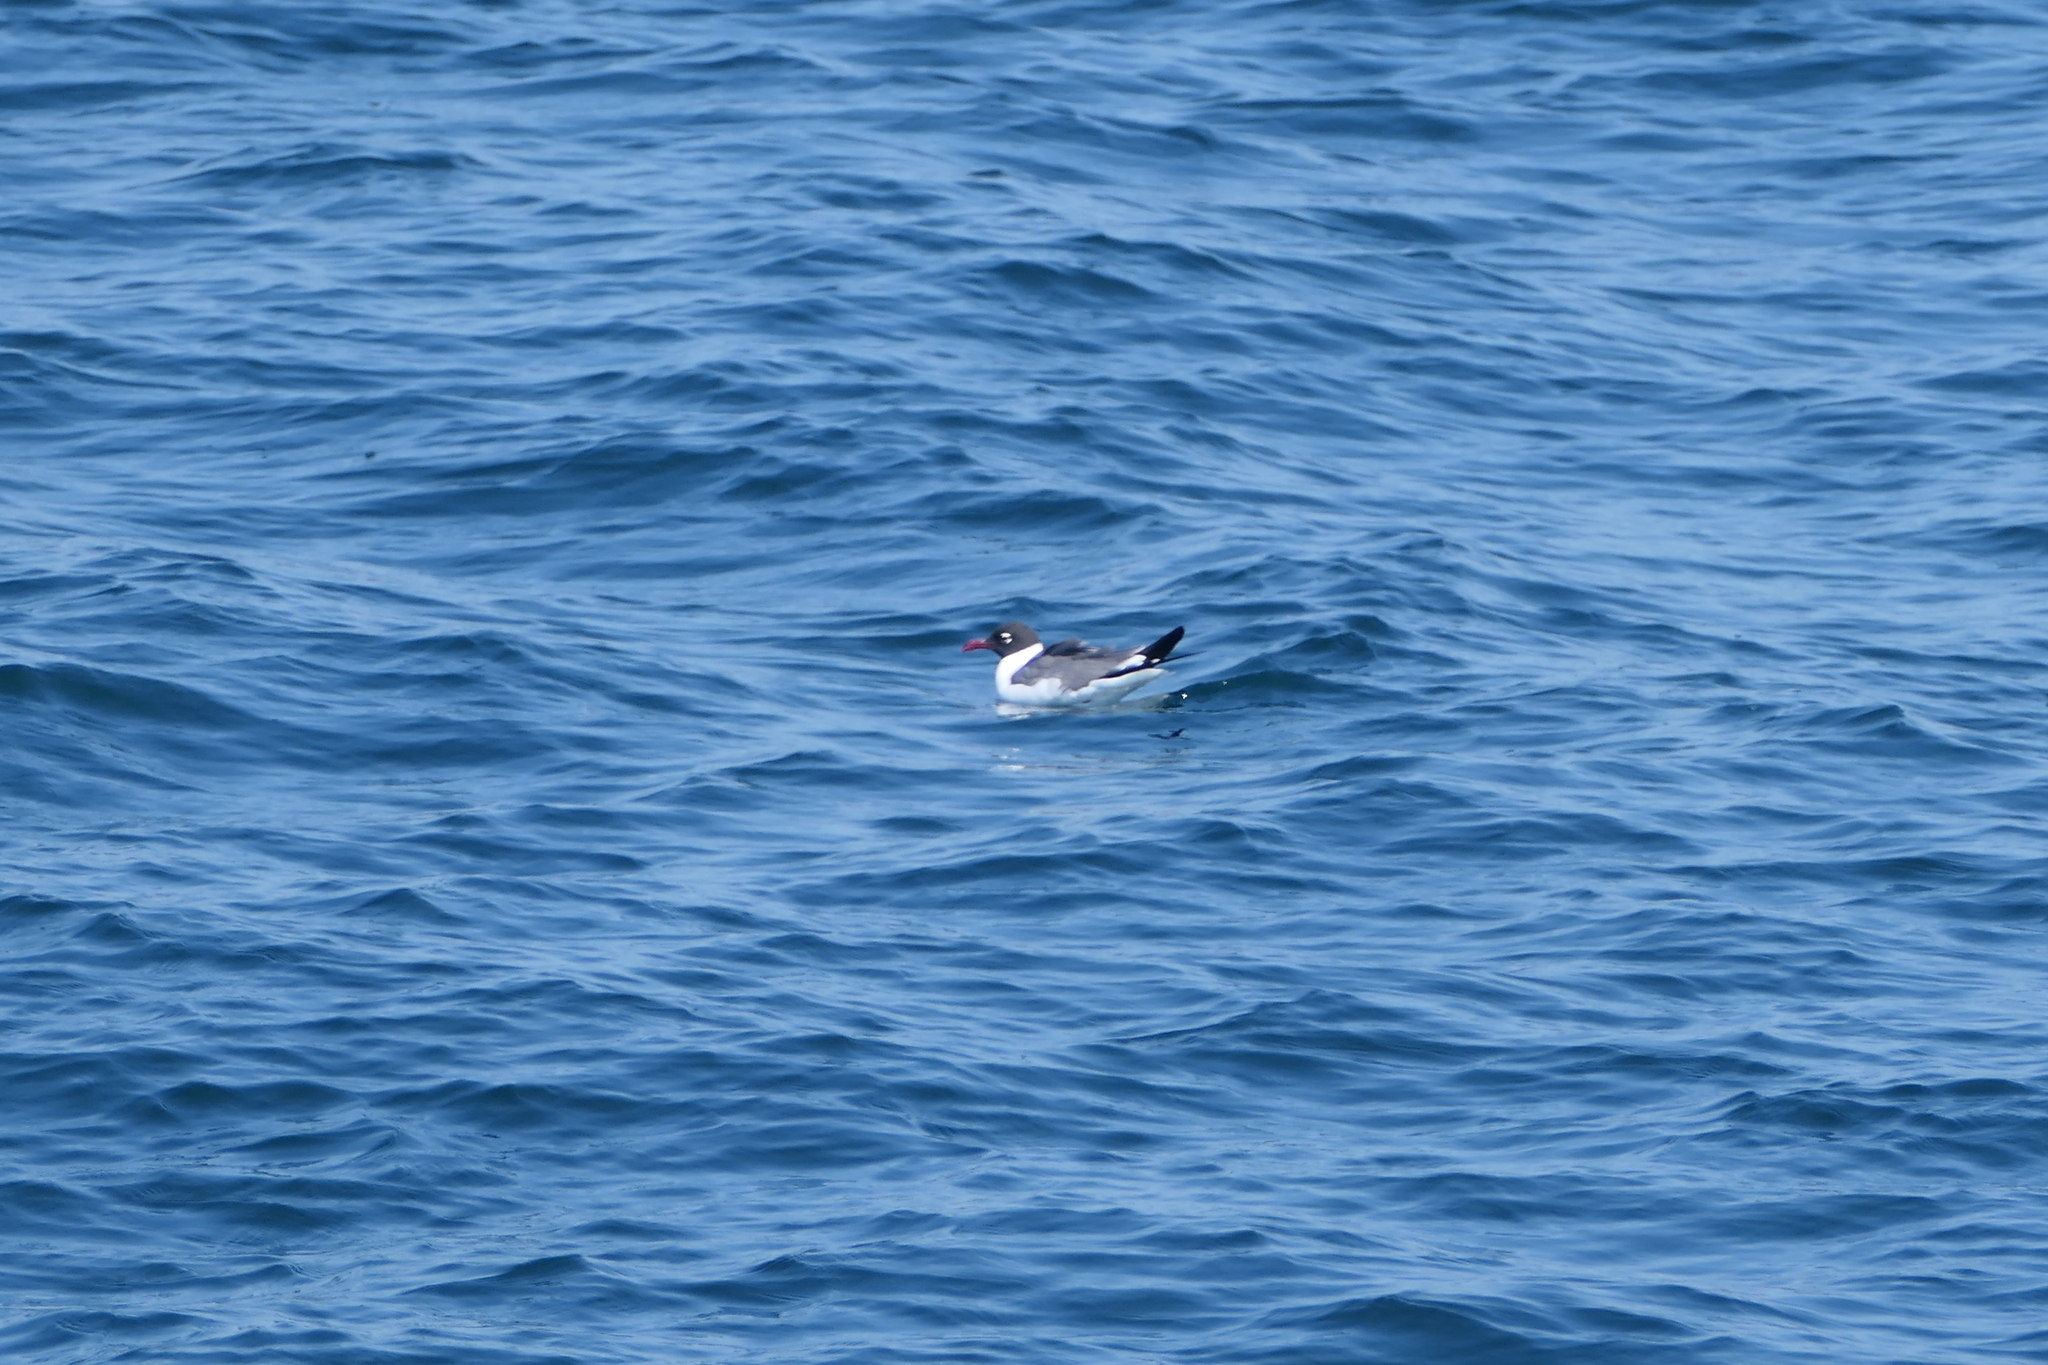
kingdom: Animalia
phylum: Chordata
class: Aves
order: Charadriiformes
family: Laridae
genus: Leucophaeus
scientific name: Leucophaeus atricilla
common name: Laughing gull
